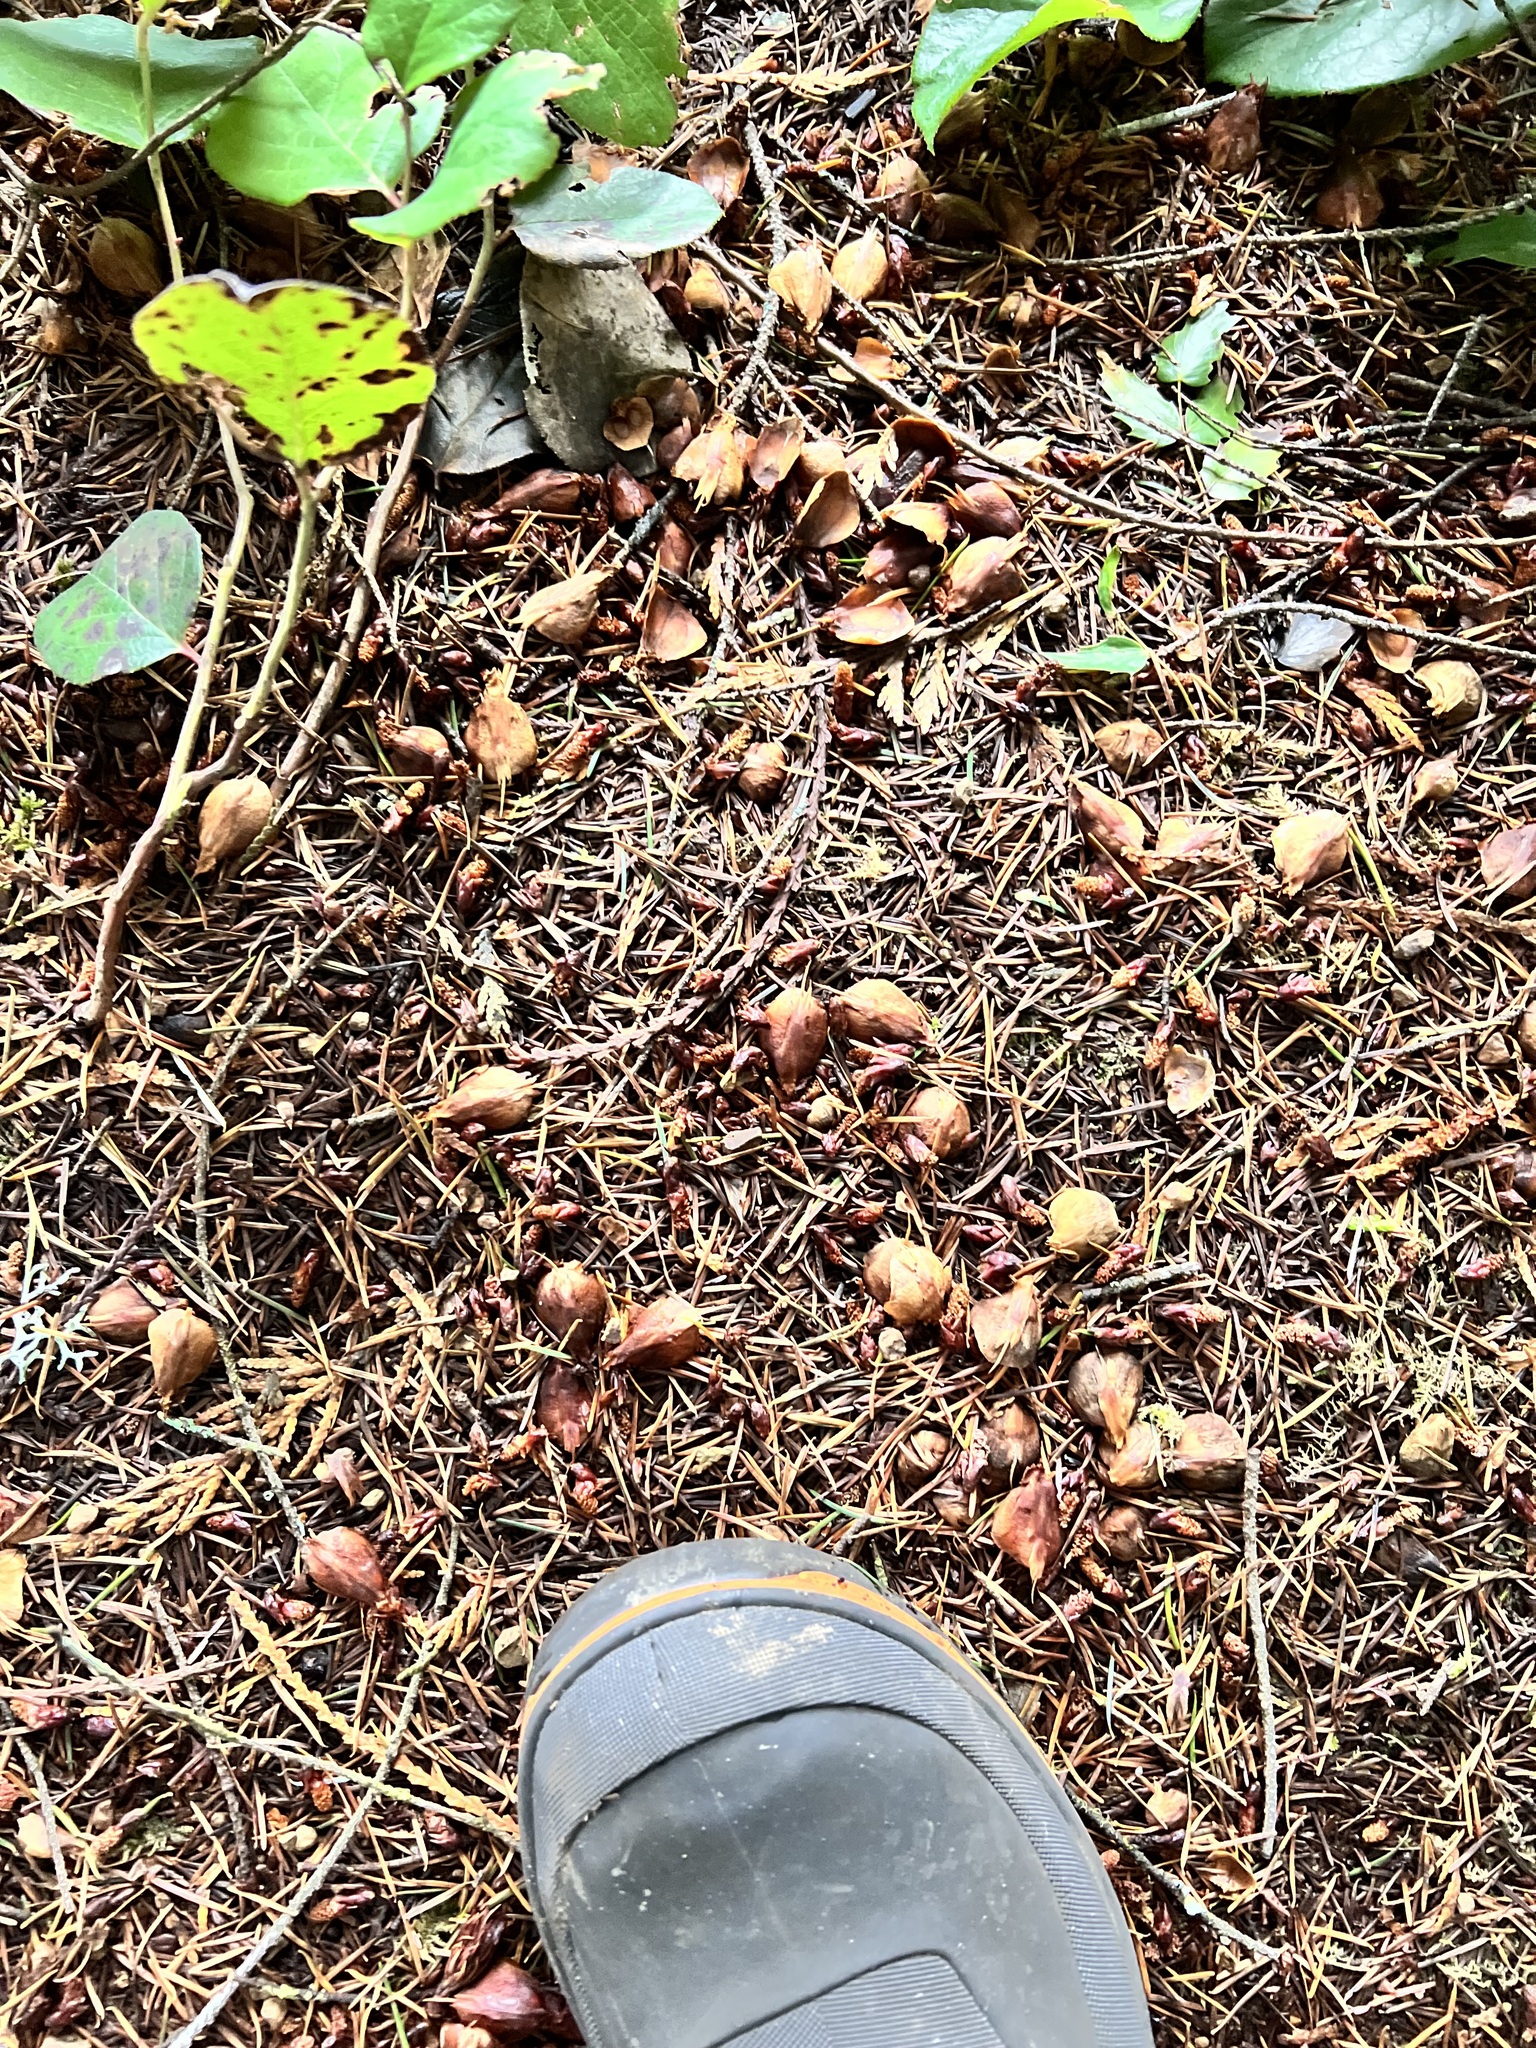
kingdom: Animalia
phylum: Chordata
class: Mammalia
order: Rodentia
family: Sciuridae
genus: Tamiasciurus
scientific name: Tamiasciurus hudsonicus
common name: Red squirrel
